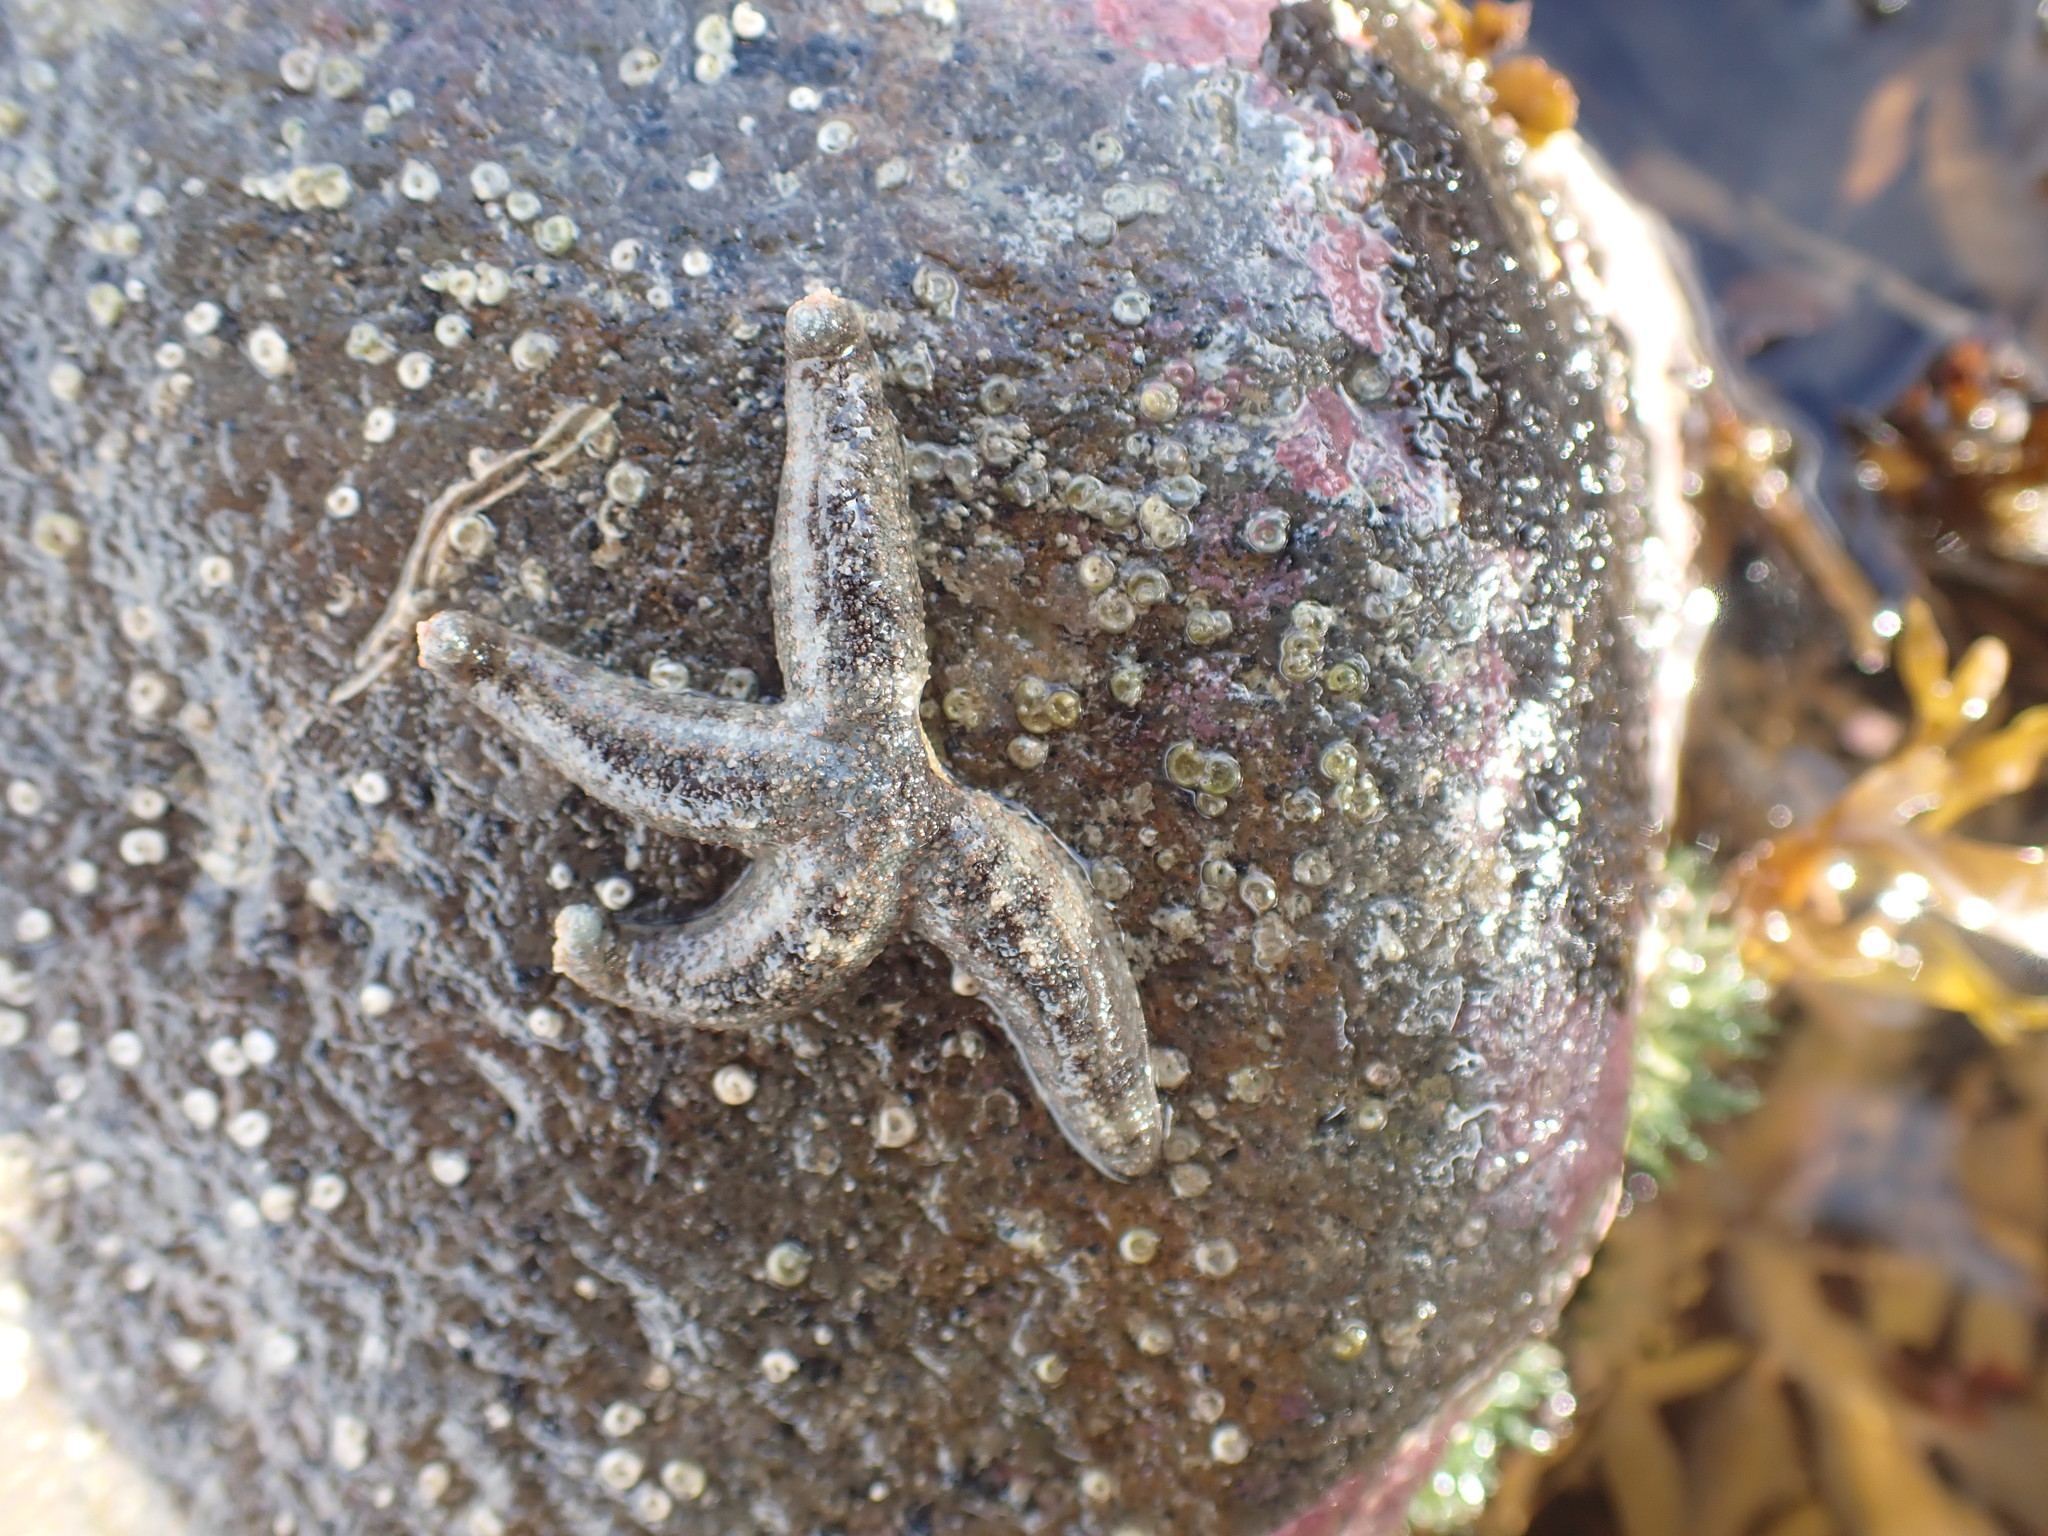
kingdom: Animalia
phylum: Echinodermata
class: Asteroidea
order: Forcipulatida
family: Stichasteridae
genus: Allostichaster
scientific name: Allostichaster polyplax
